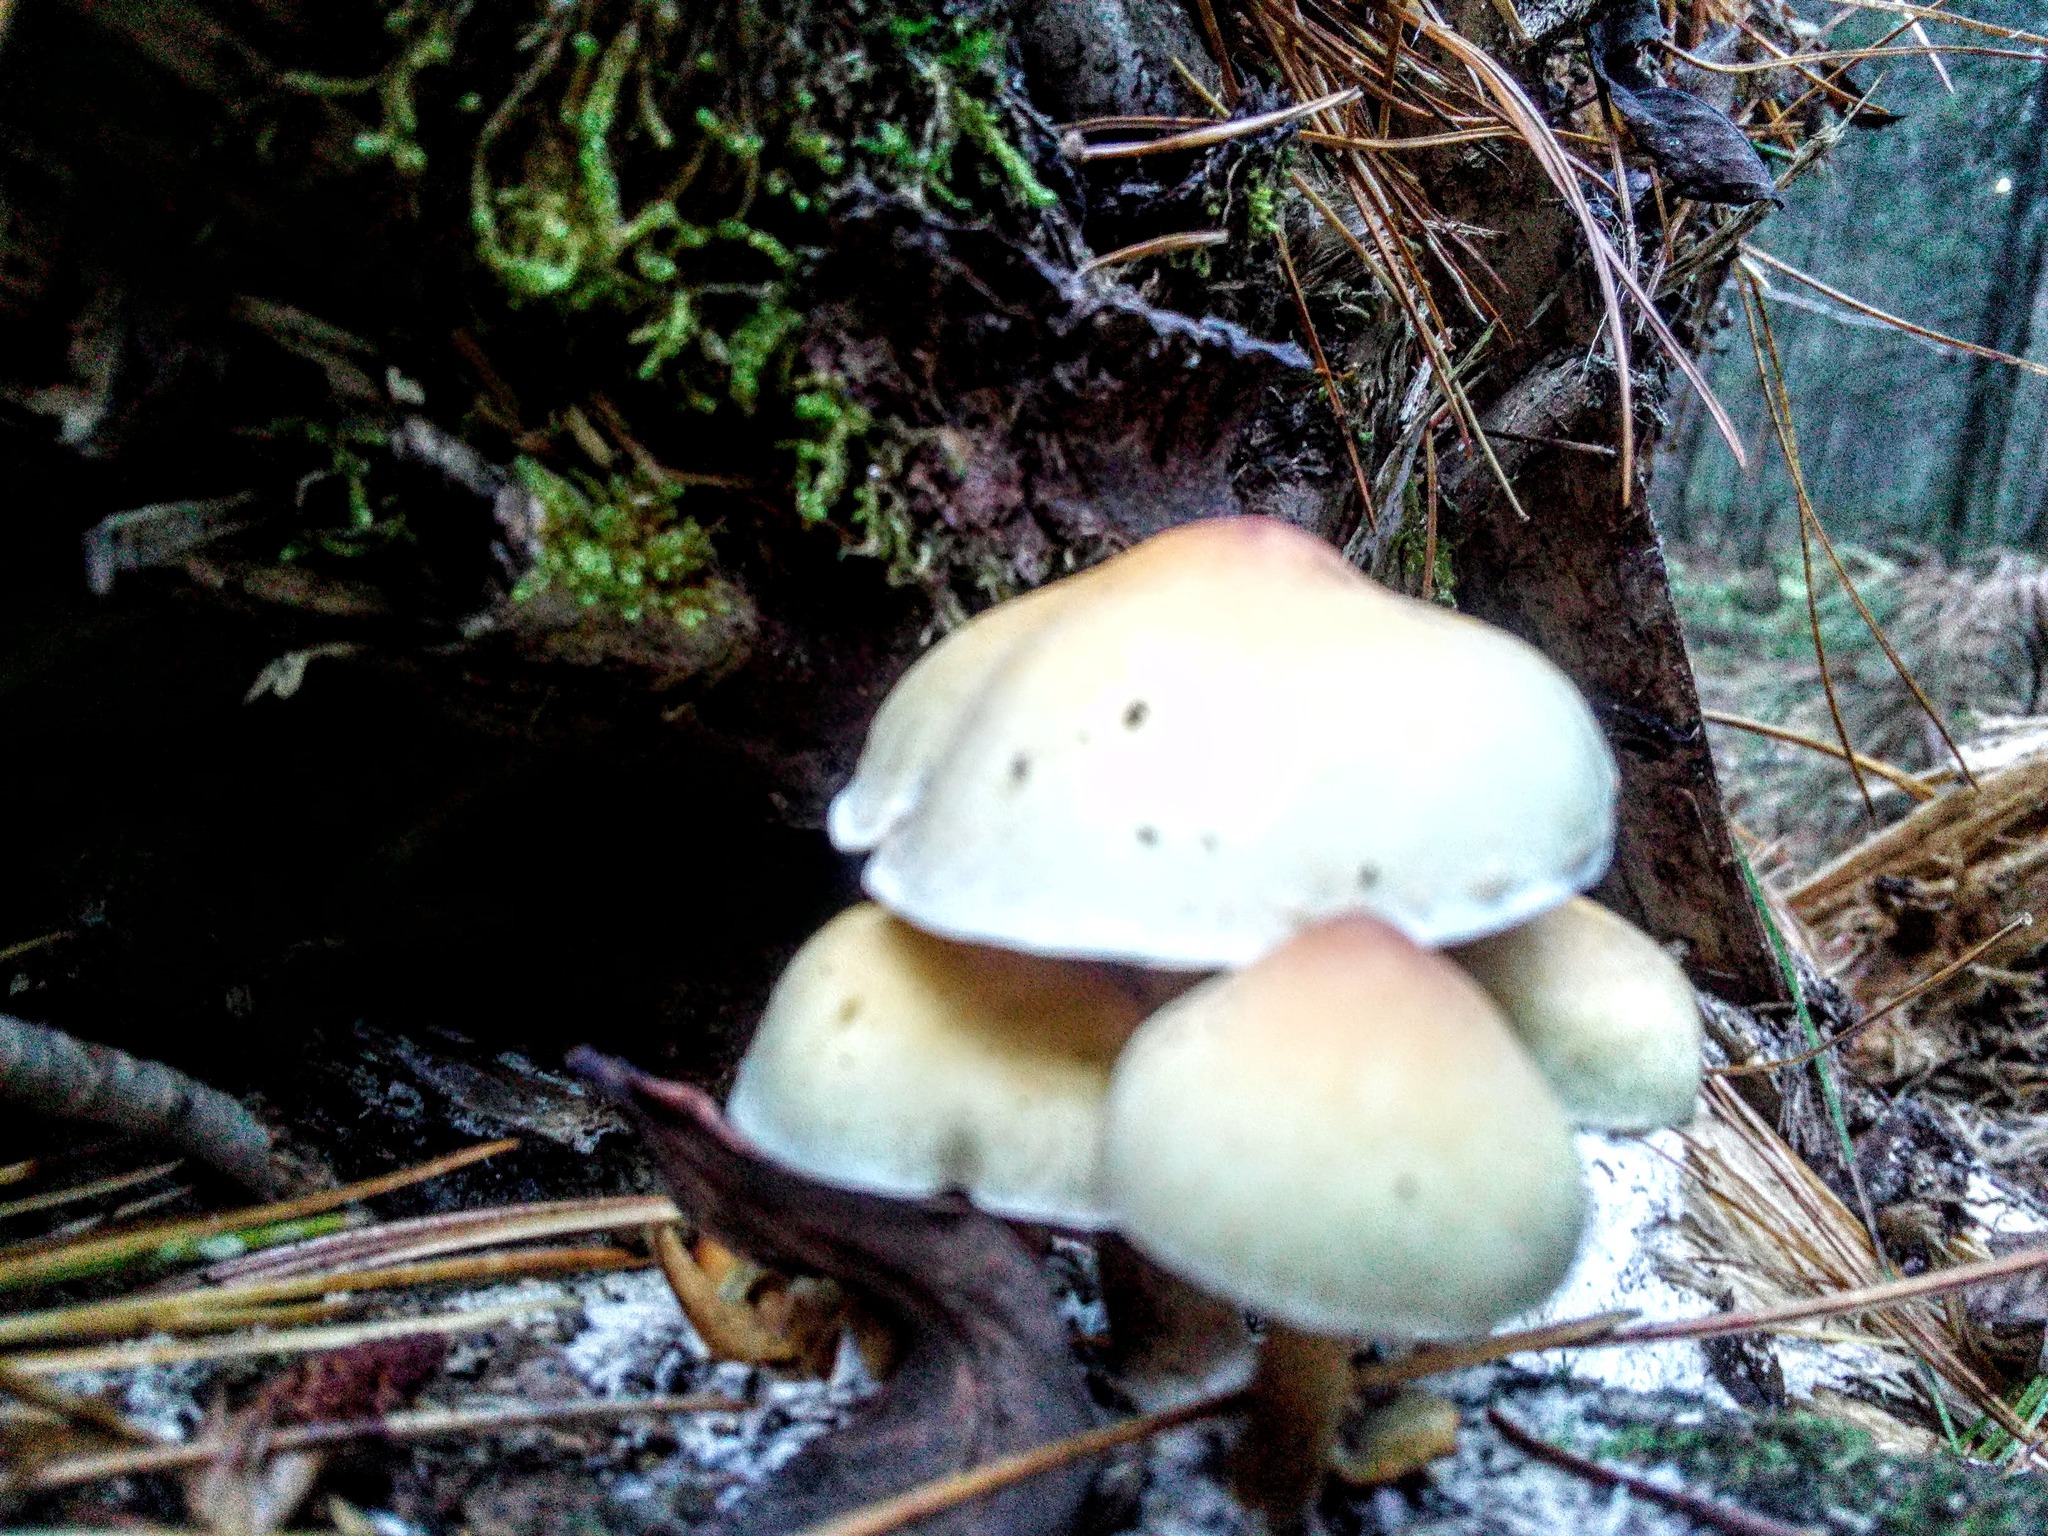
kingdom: Fungi
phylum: Basidiomycota
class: Agaricomycetes
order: Agaricales
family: Strophariaceae
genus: Hypholoma
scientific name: Hypholoma capnoides
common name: Conifer tuft
